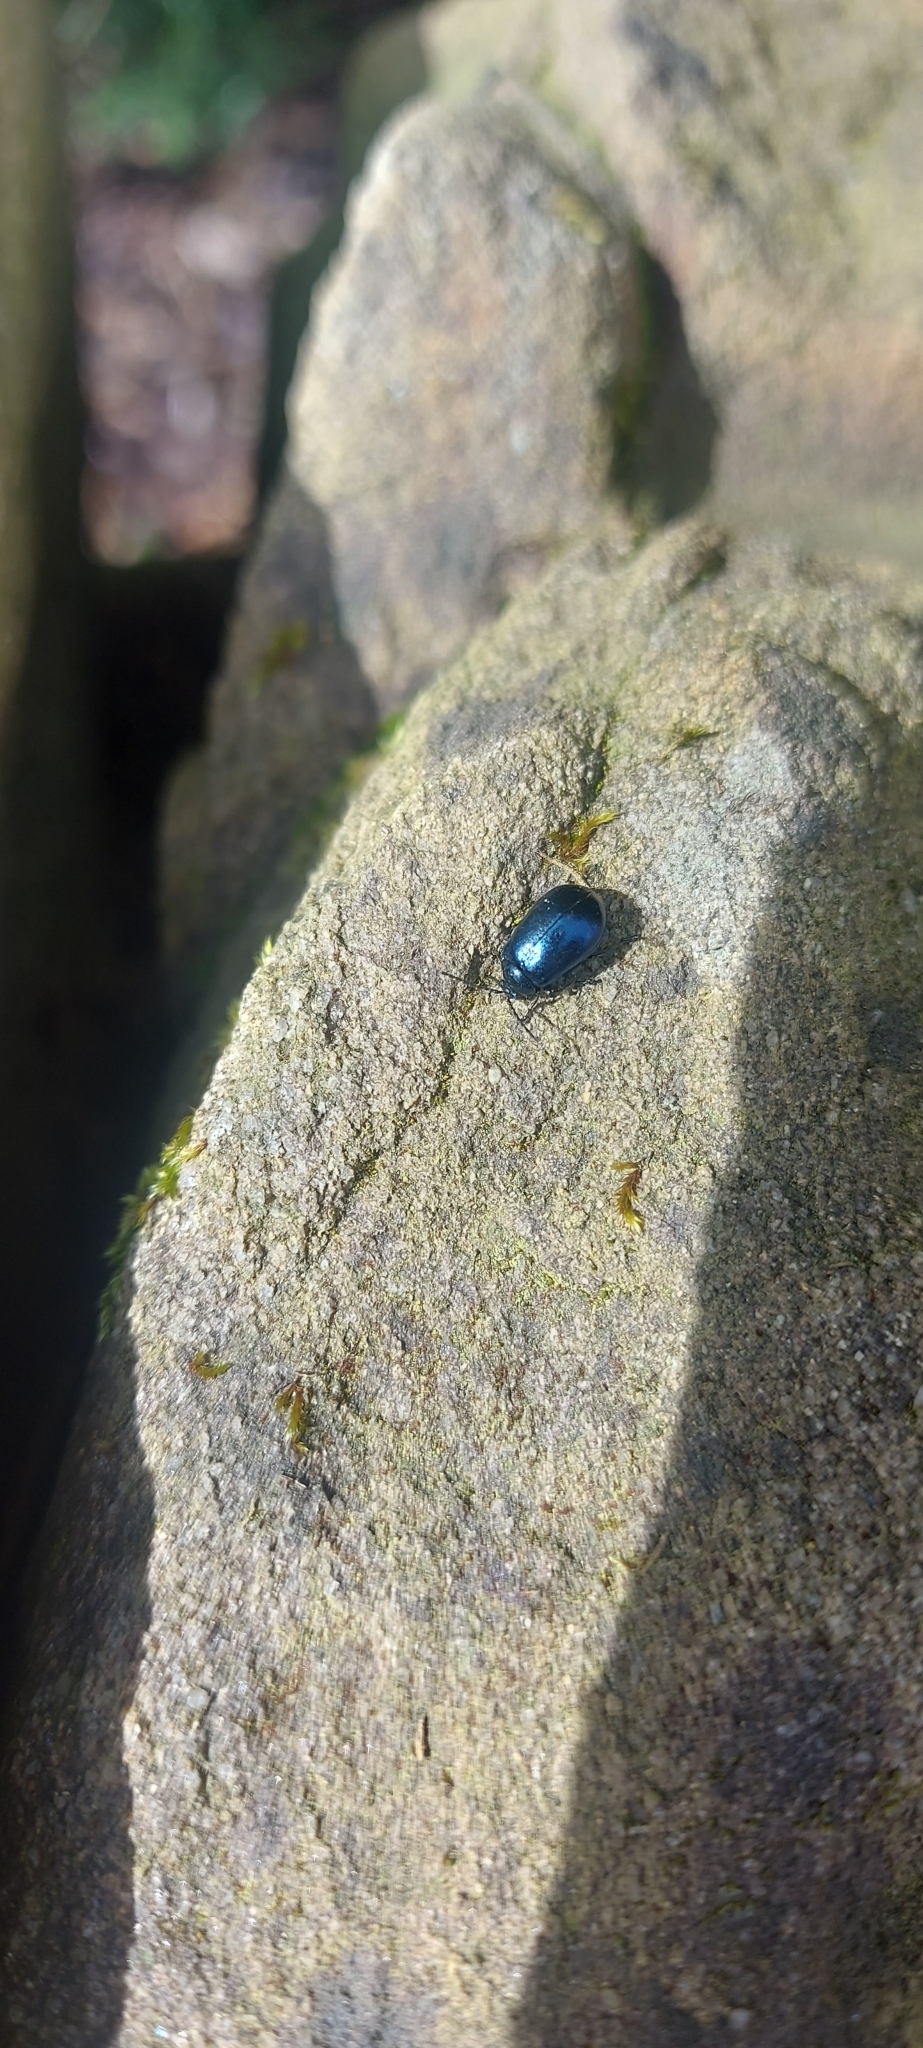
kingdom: Animalia
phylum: Arthropoda
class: Insecta
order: Coleoptera
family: Chrysomelidae
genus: Agelastica
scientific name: Agelastica alni
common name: Alder leaf beetle
